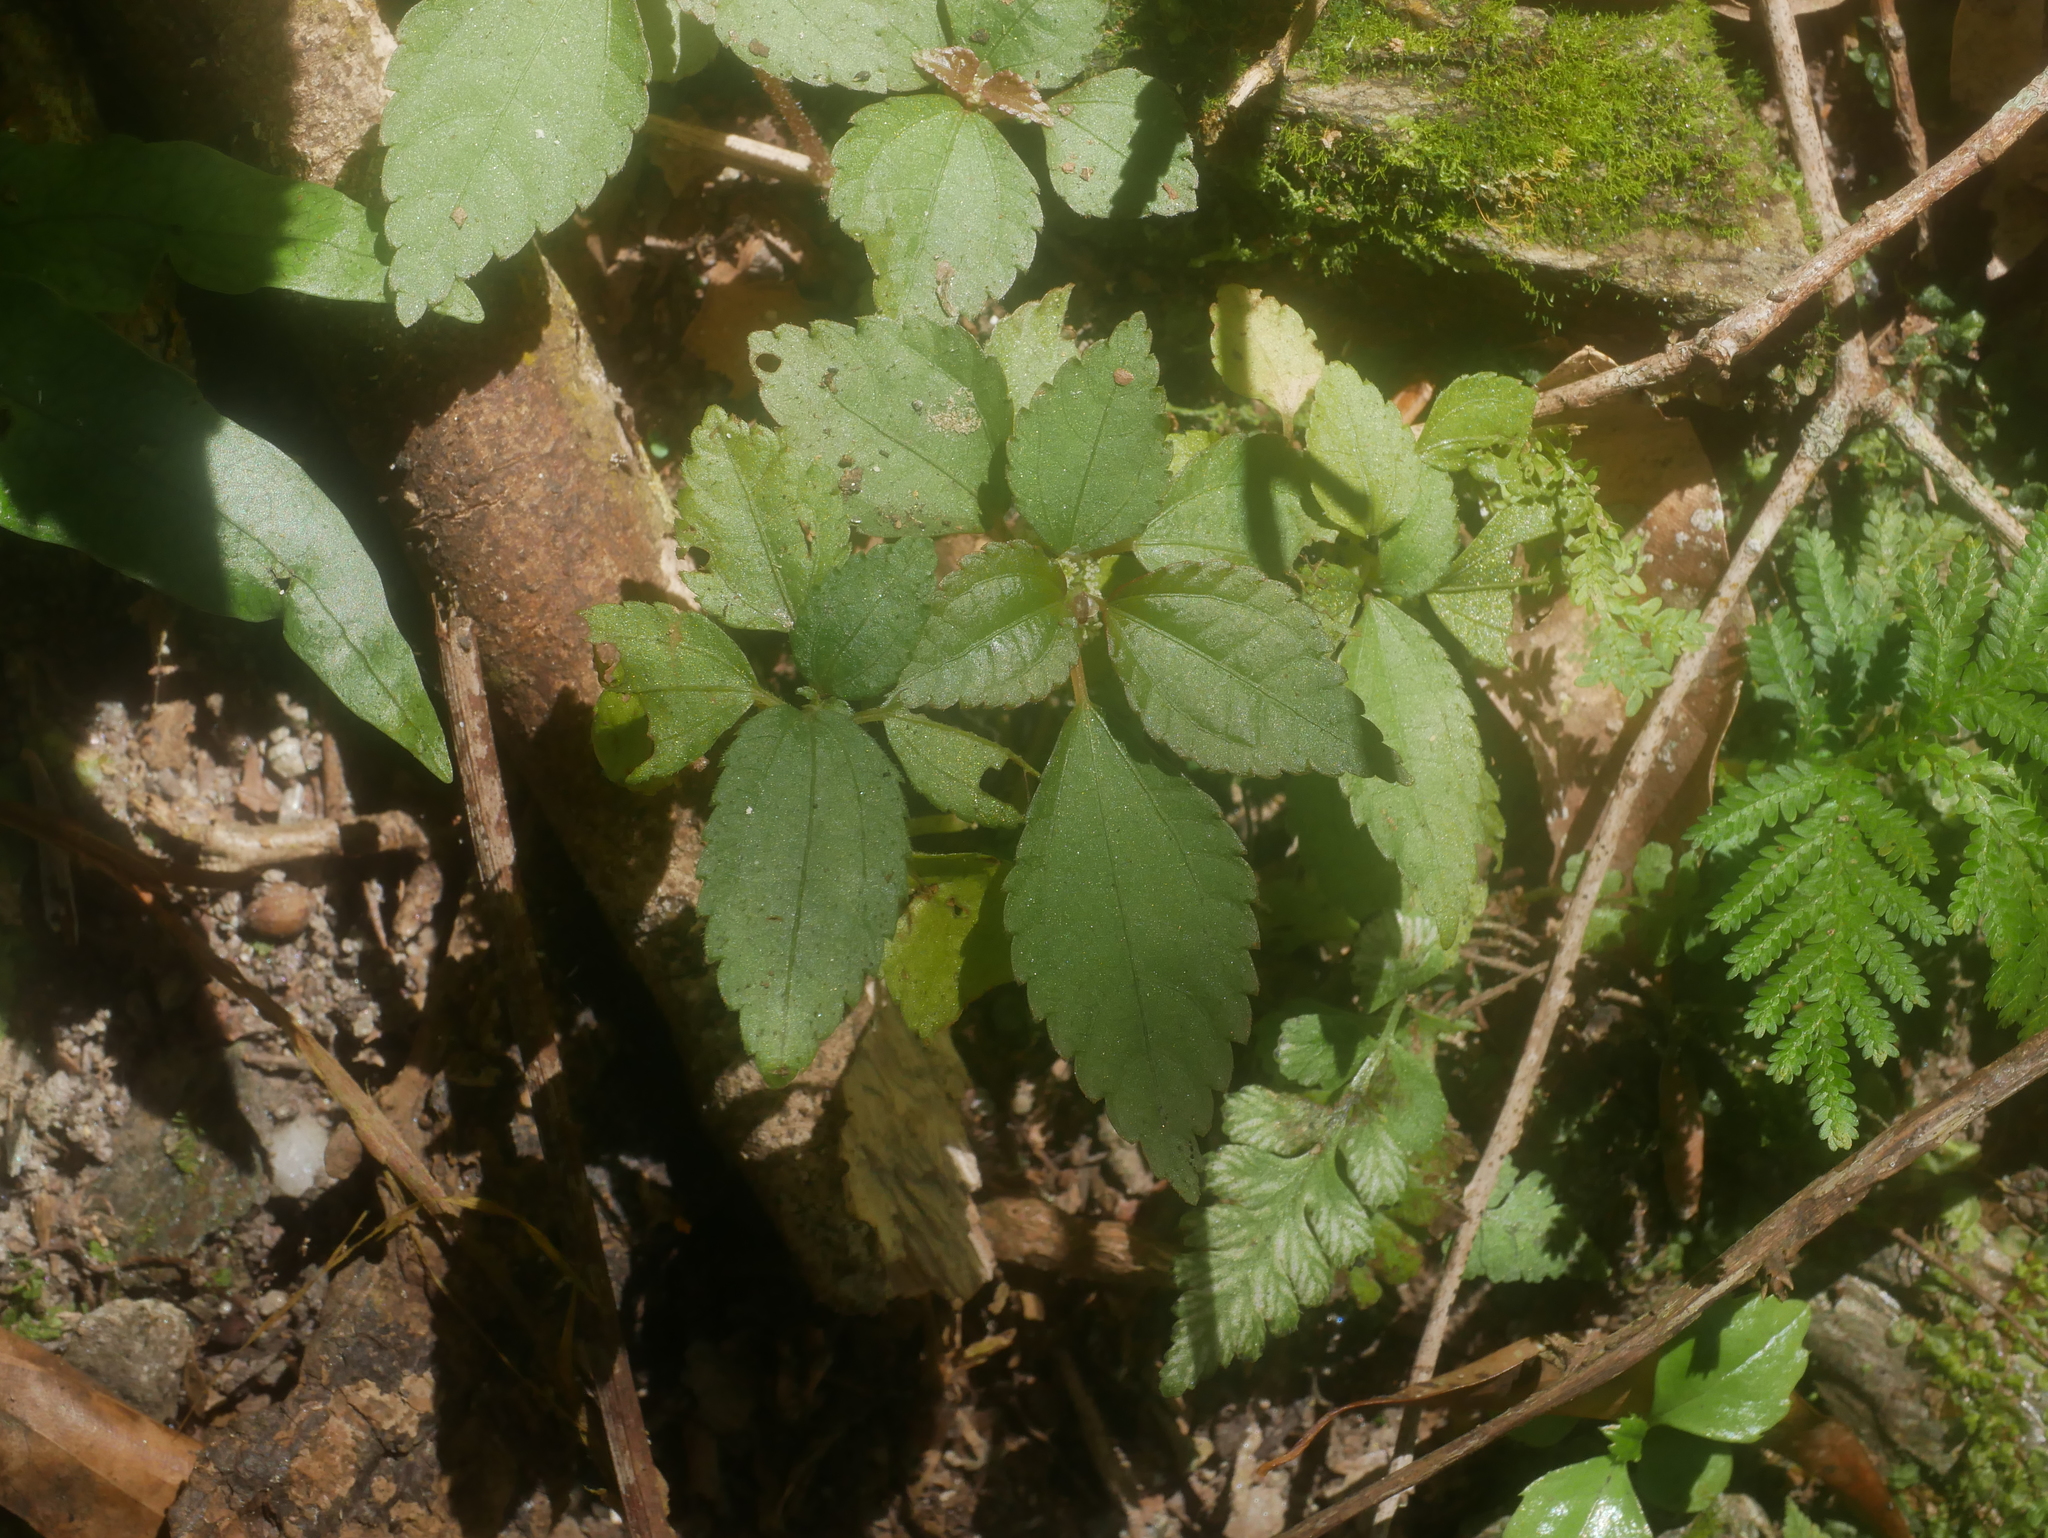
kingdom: Plantae
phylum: Tracheophyta
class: Magnoliopsida
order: Rosales
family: Urticaceae
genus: Chamabainia
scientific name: Chamabainia cuspidata
